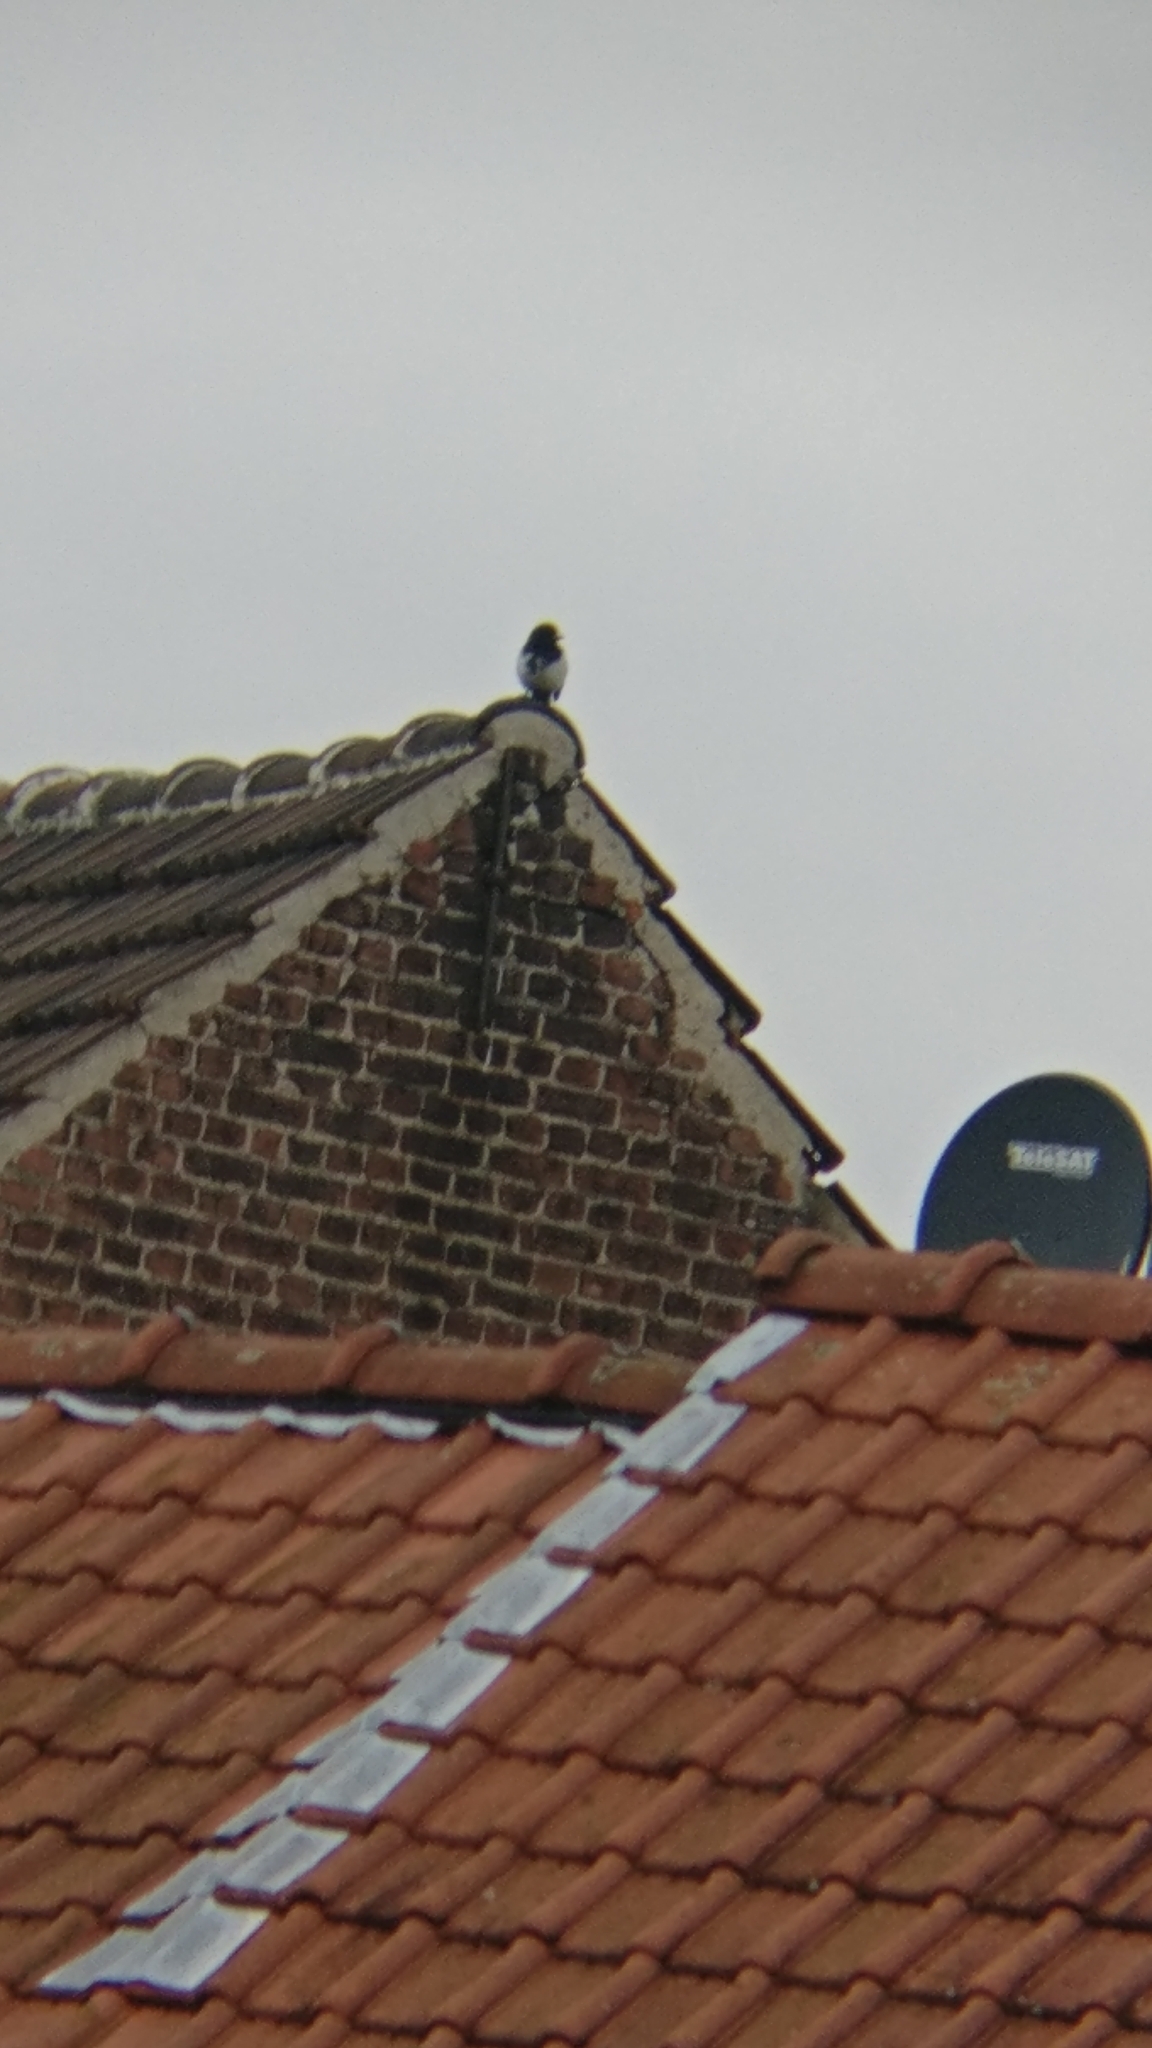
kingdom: Animalia
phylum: Chordata
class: Aves
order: Passeriformes
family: Corvidae
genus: Pica
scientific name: Pica pica
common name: Eurasian magpie
